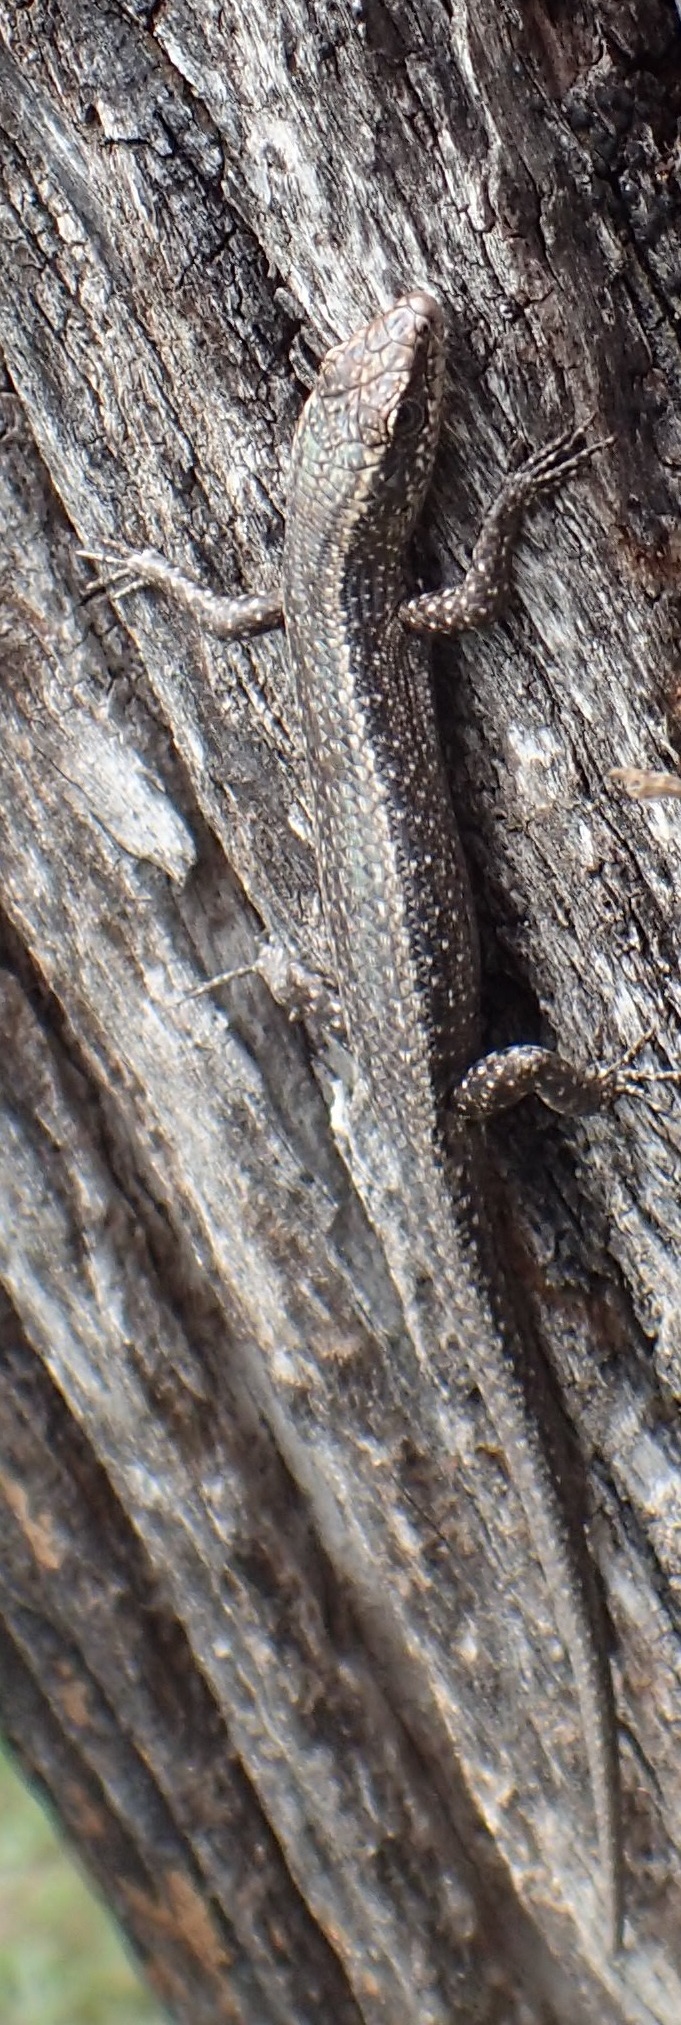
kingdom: Animalia
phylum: Chordata
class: Squamata
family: Scincidae
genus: Cryptoblepharus
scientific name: Cryptoblepharus buchananii
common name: Buchanan's snake-eyed skink
